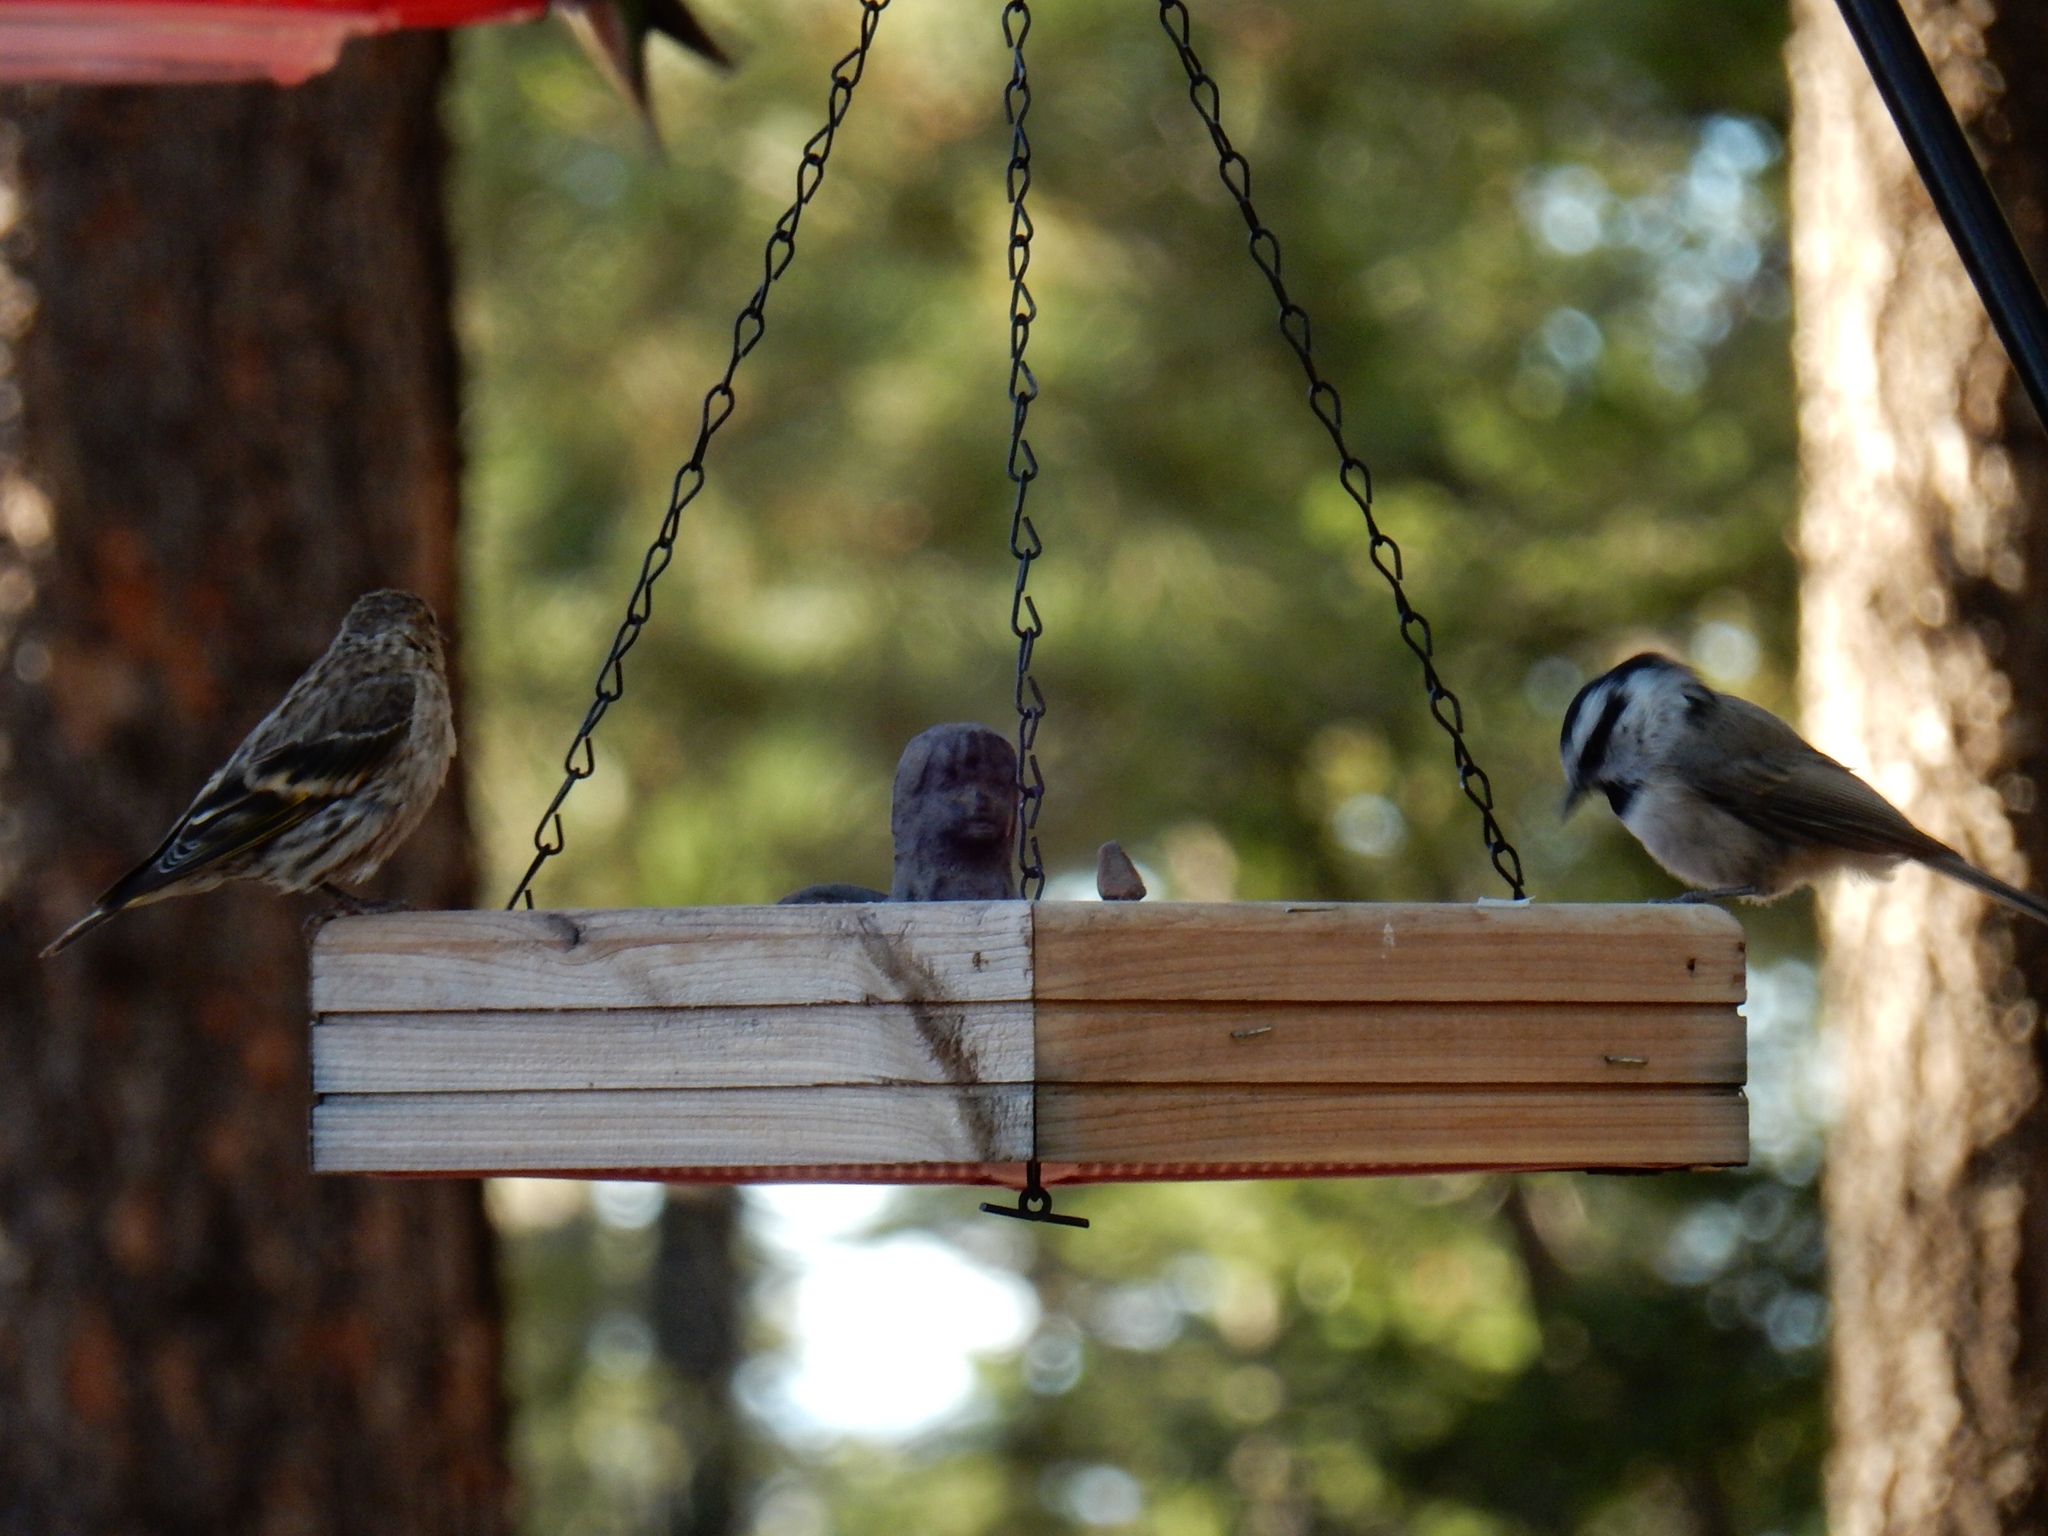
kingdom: Animalia
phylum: Chordata
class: Aves
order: Passeriformes
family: Fringillidae
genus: Spinus
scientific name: Spinus pinus
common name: Pine siskin
